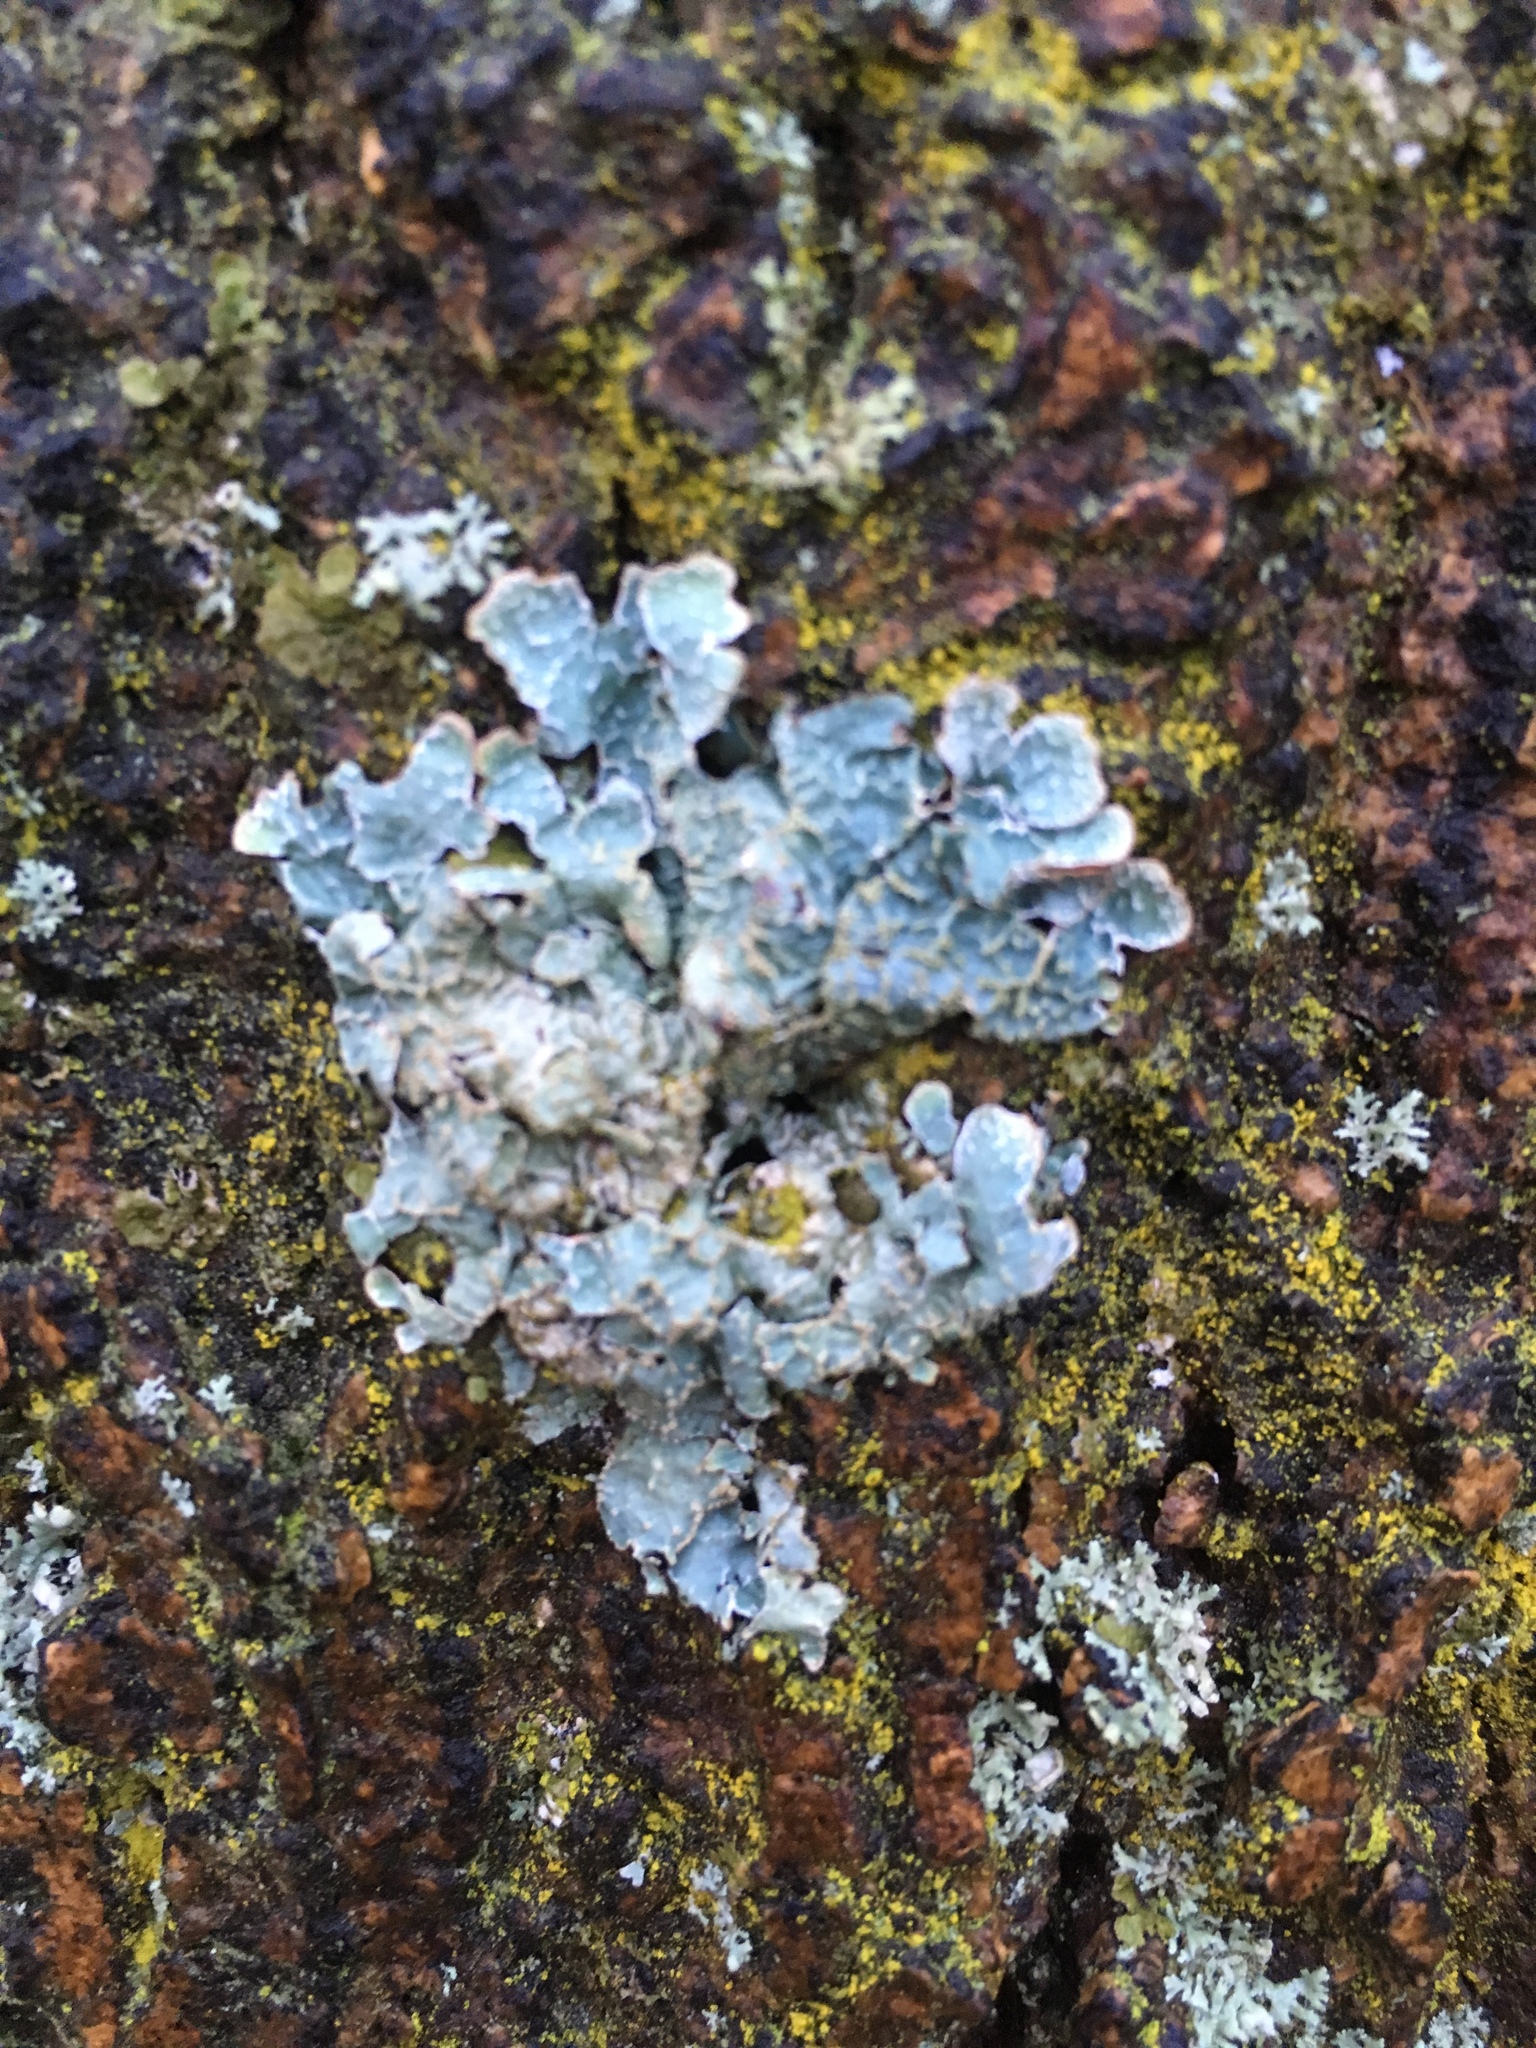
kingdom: Fungi
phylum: Ascomycota
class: Lecanoromycetes
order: Lecanorales
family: Parmeliaceae
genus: Parmelia
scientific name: Parmelia sulcata
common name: Netted shield lichen
